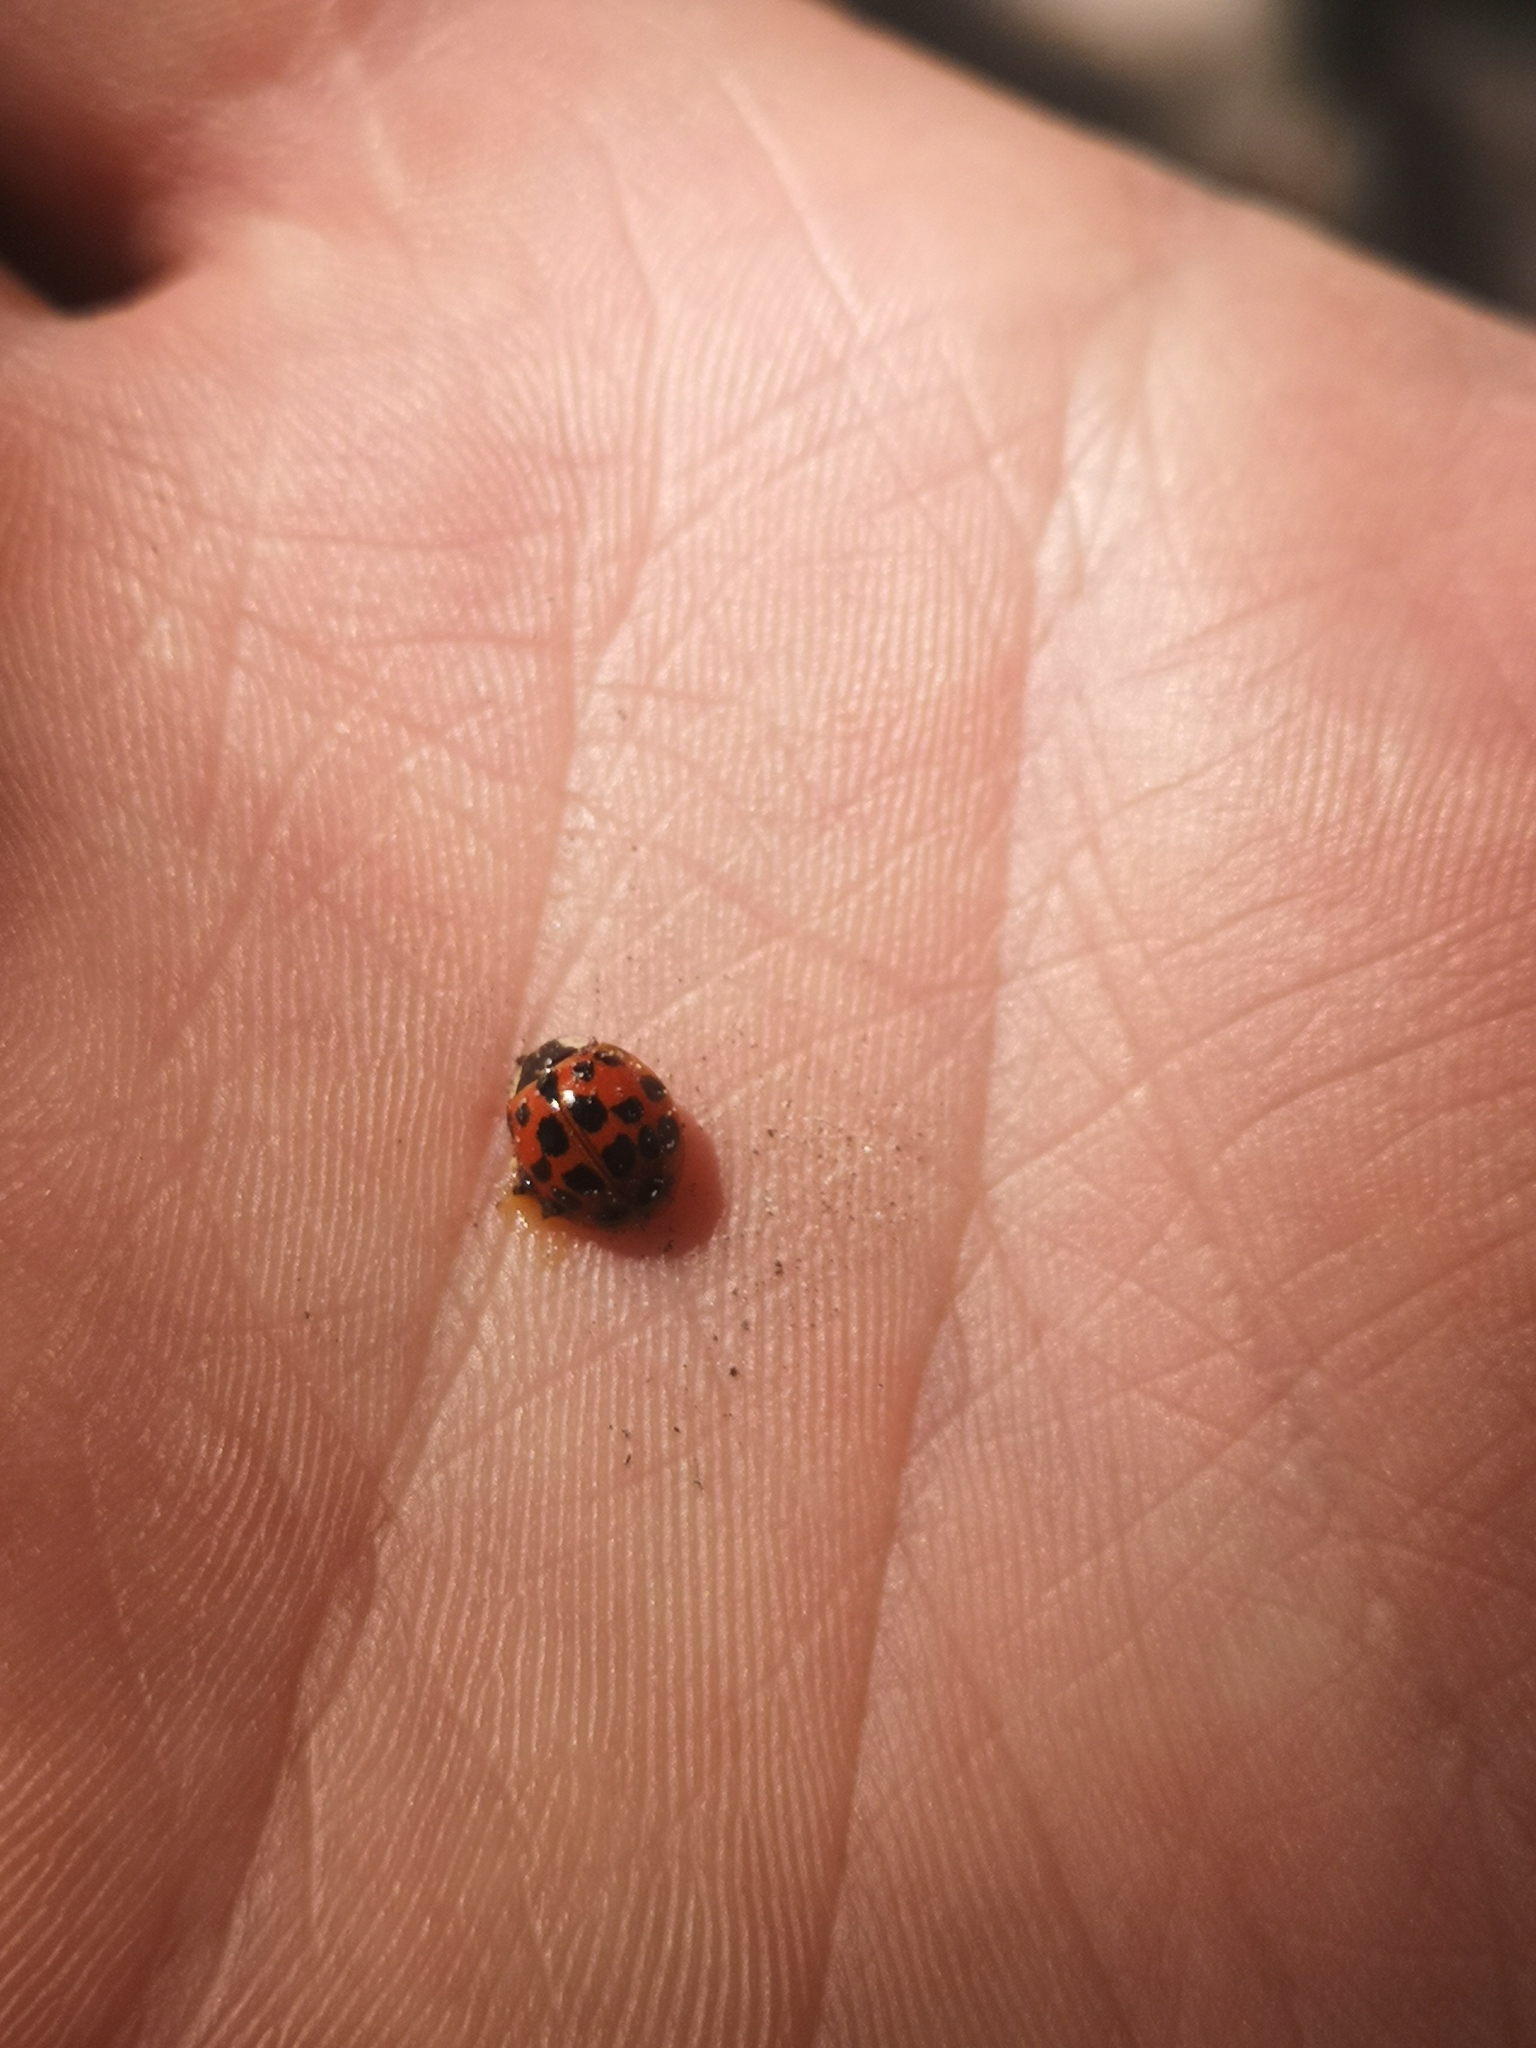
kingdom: Animalia
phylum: Arthropoda
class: Insecta
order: Coleoptera
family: Coccinellidae
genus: Harmonia
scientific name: Harmonia axyridis
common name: Harlequin ladybird
